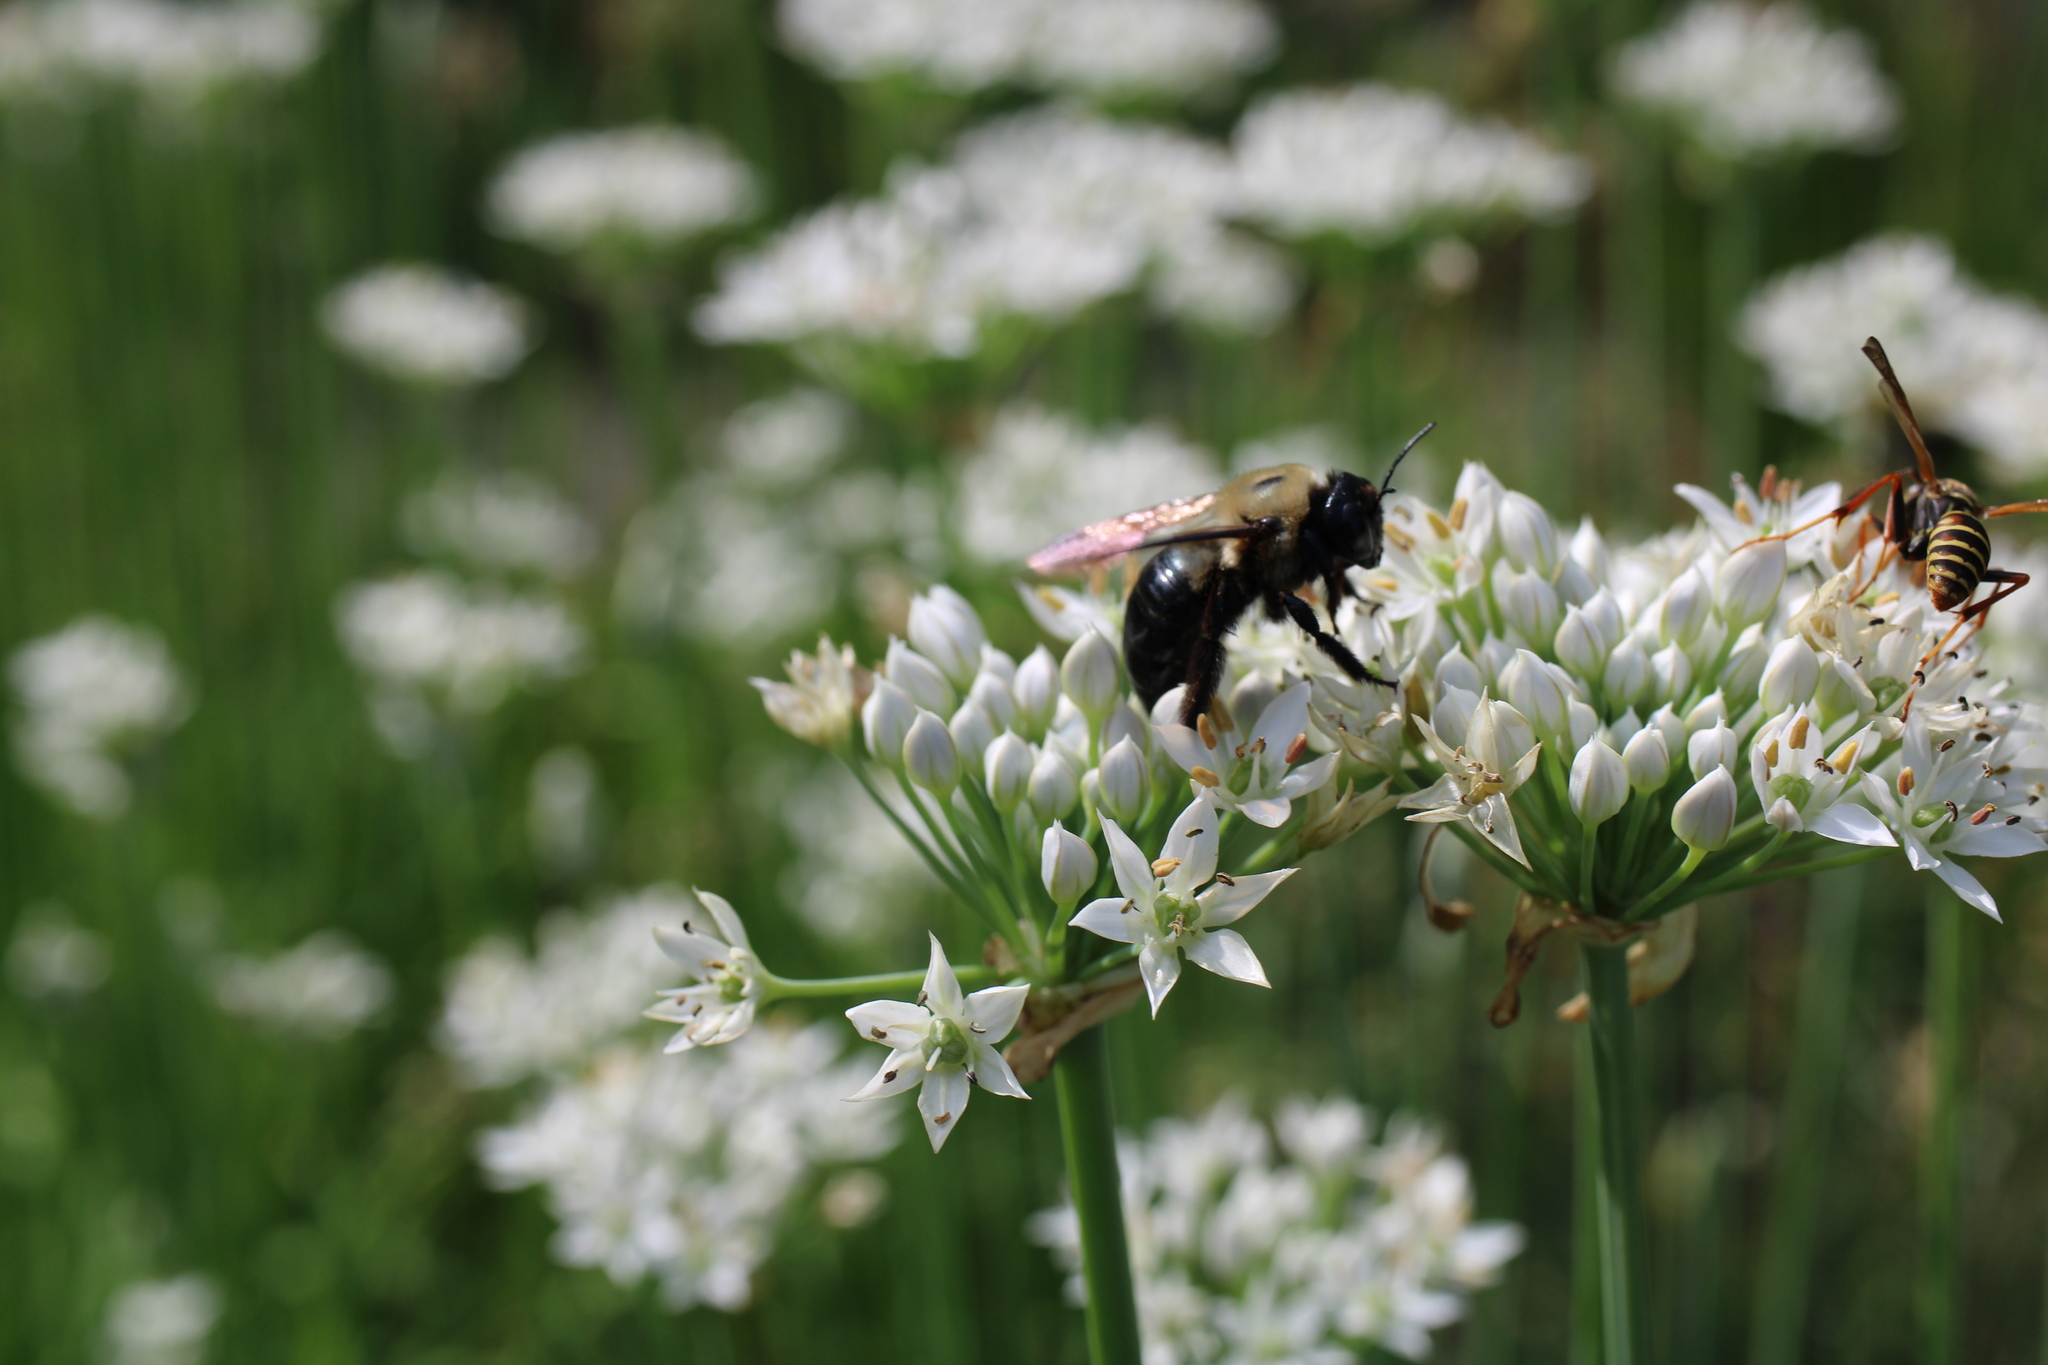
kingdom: Animalia
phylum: Arthropoda
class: Insecta
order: Hymenoptera
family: Apidae
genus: Xylocopa
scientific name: Xylocopa virginica
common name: Carpenter bee
